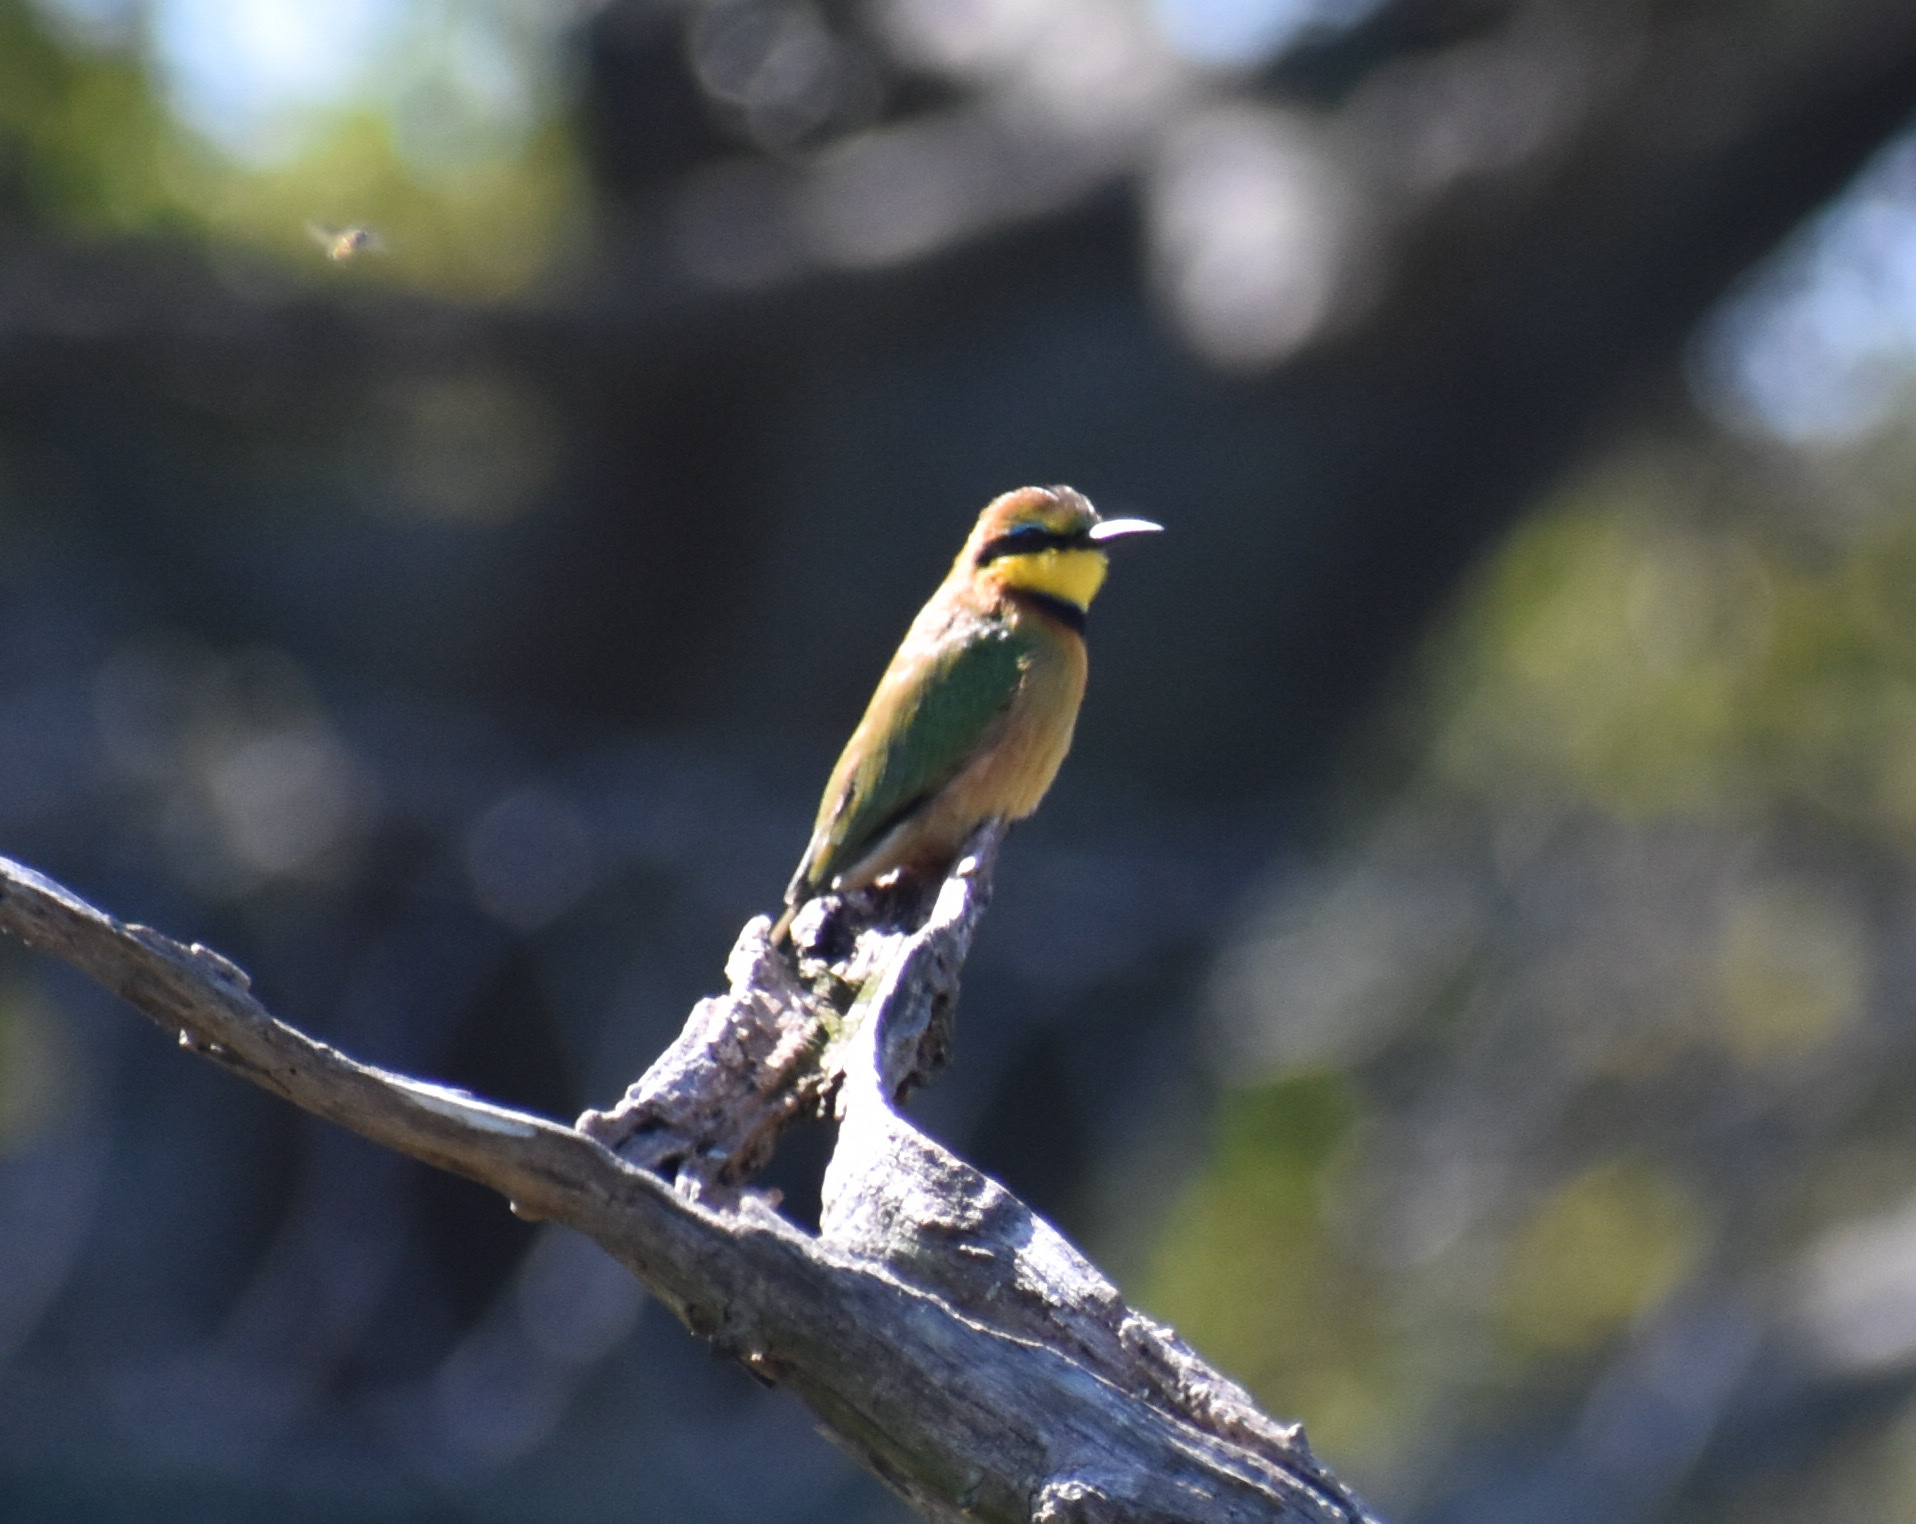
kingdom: Animalia
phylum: Chordata
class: Aves
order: Coraciiformes
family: Meropidae
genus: Merops
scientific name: Merops pusillus
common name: Little bee-eater
